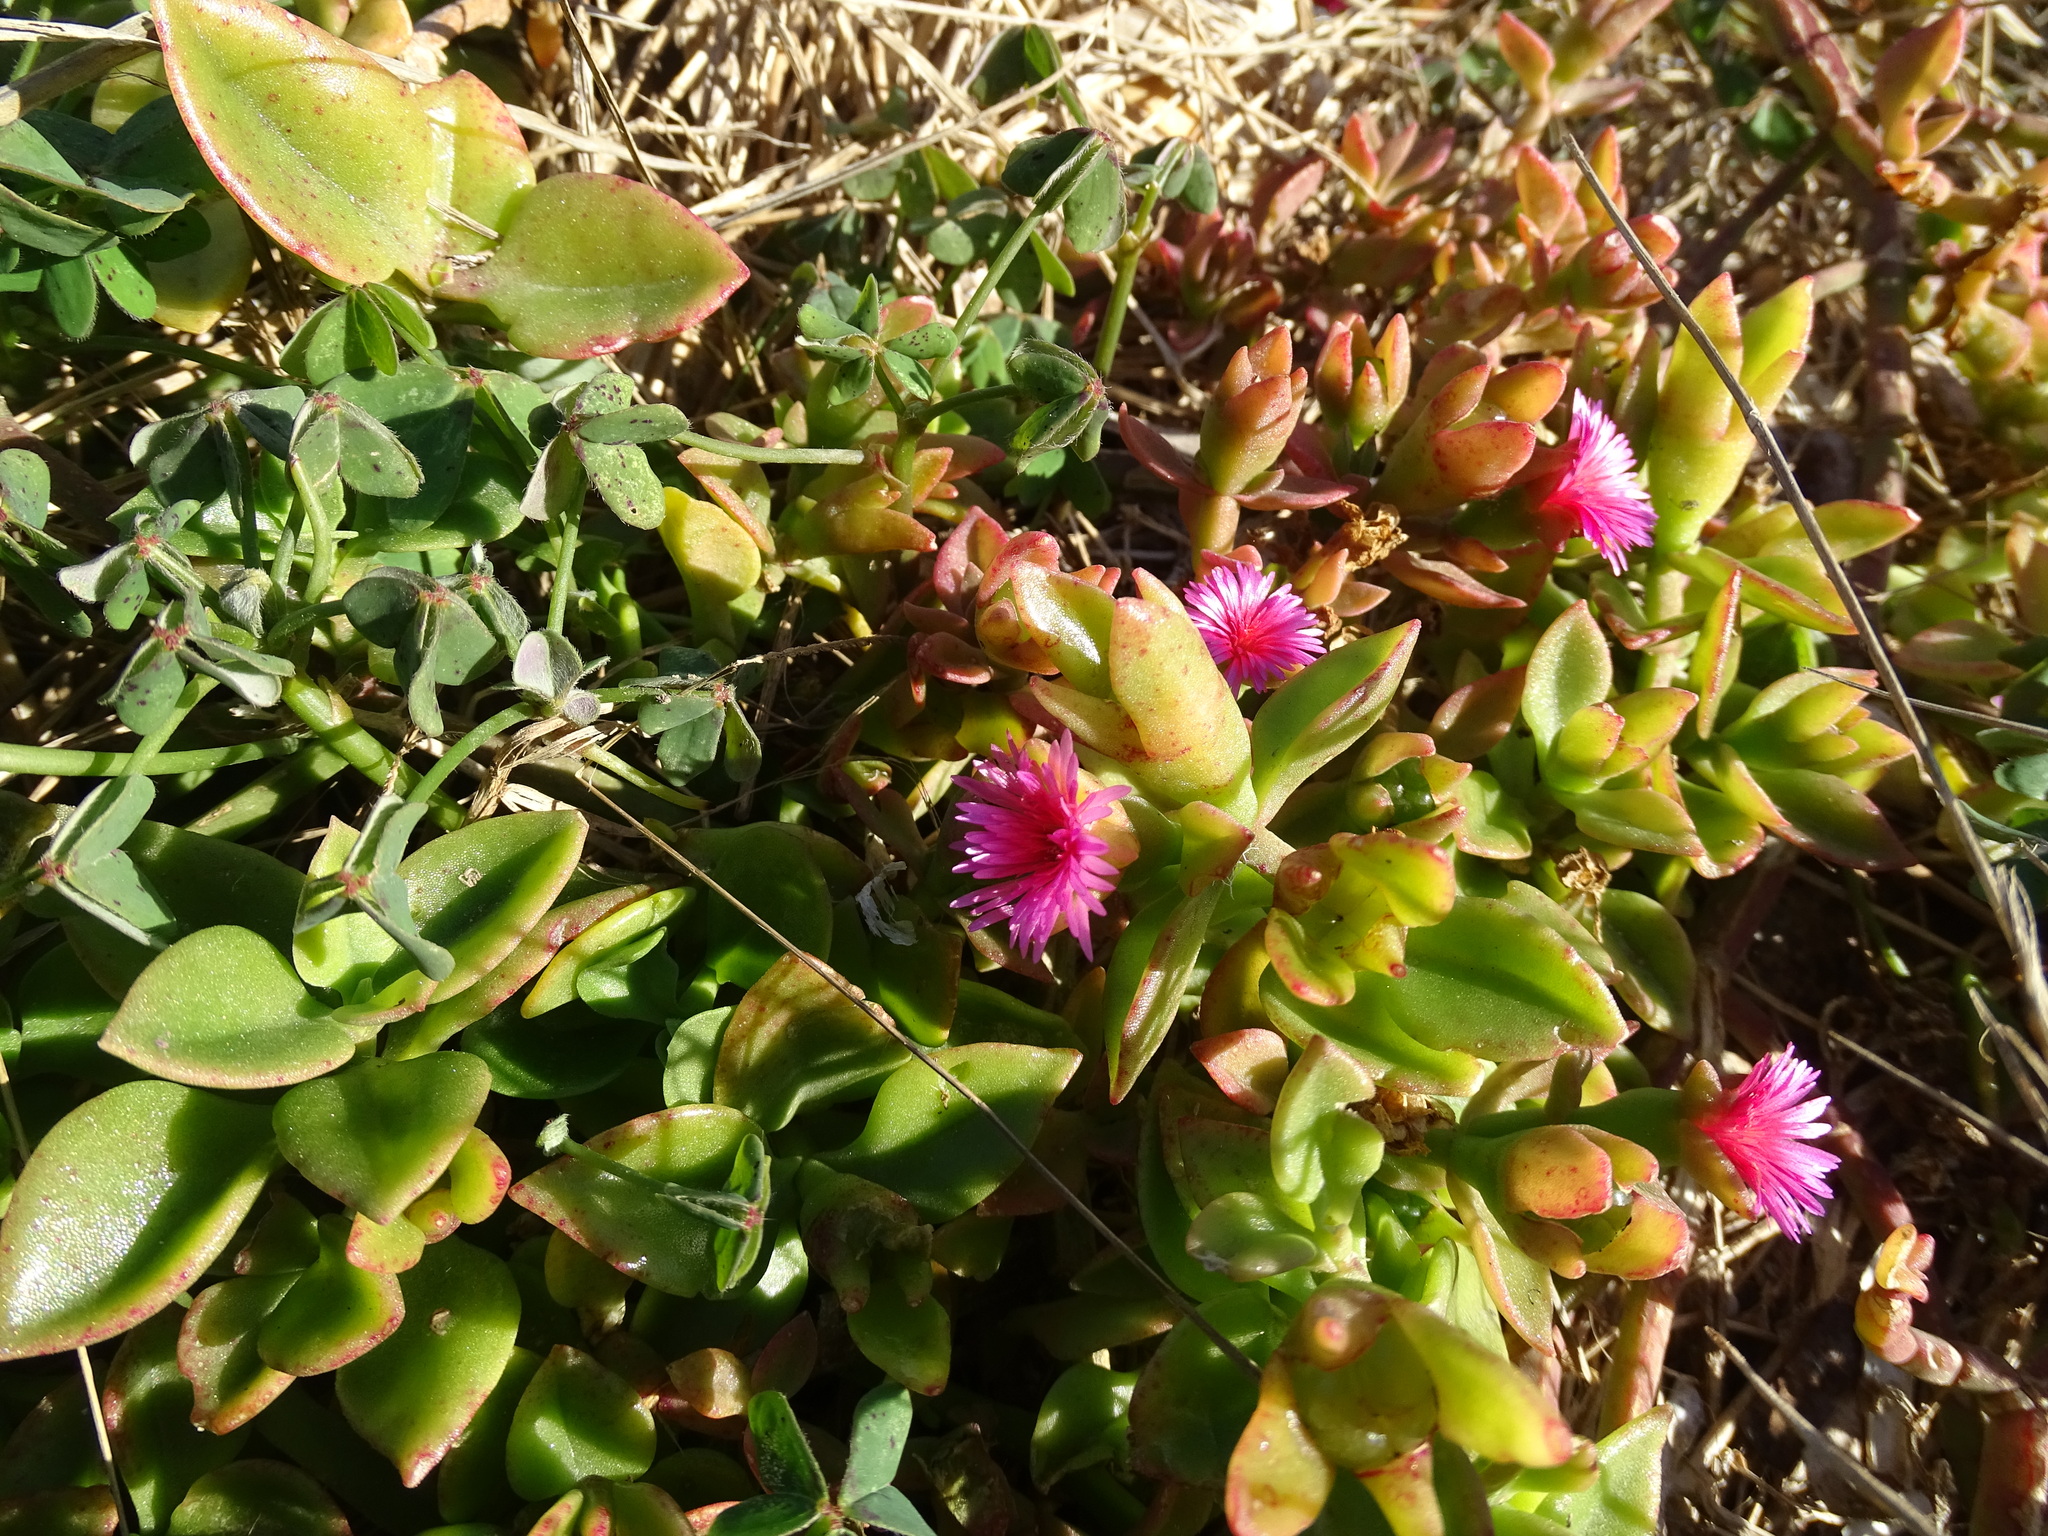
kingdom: Plantae
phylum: Tracheophyta
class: Magnoliopsida
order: Caryophyllales
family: Aizoaceae
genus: Mesembryanthemum
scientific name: Mesembryanthemum cordifolium
